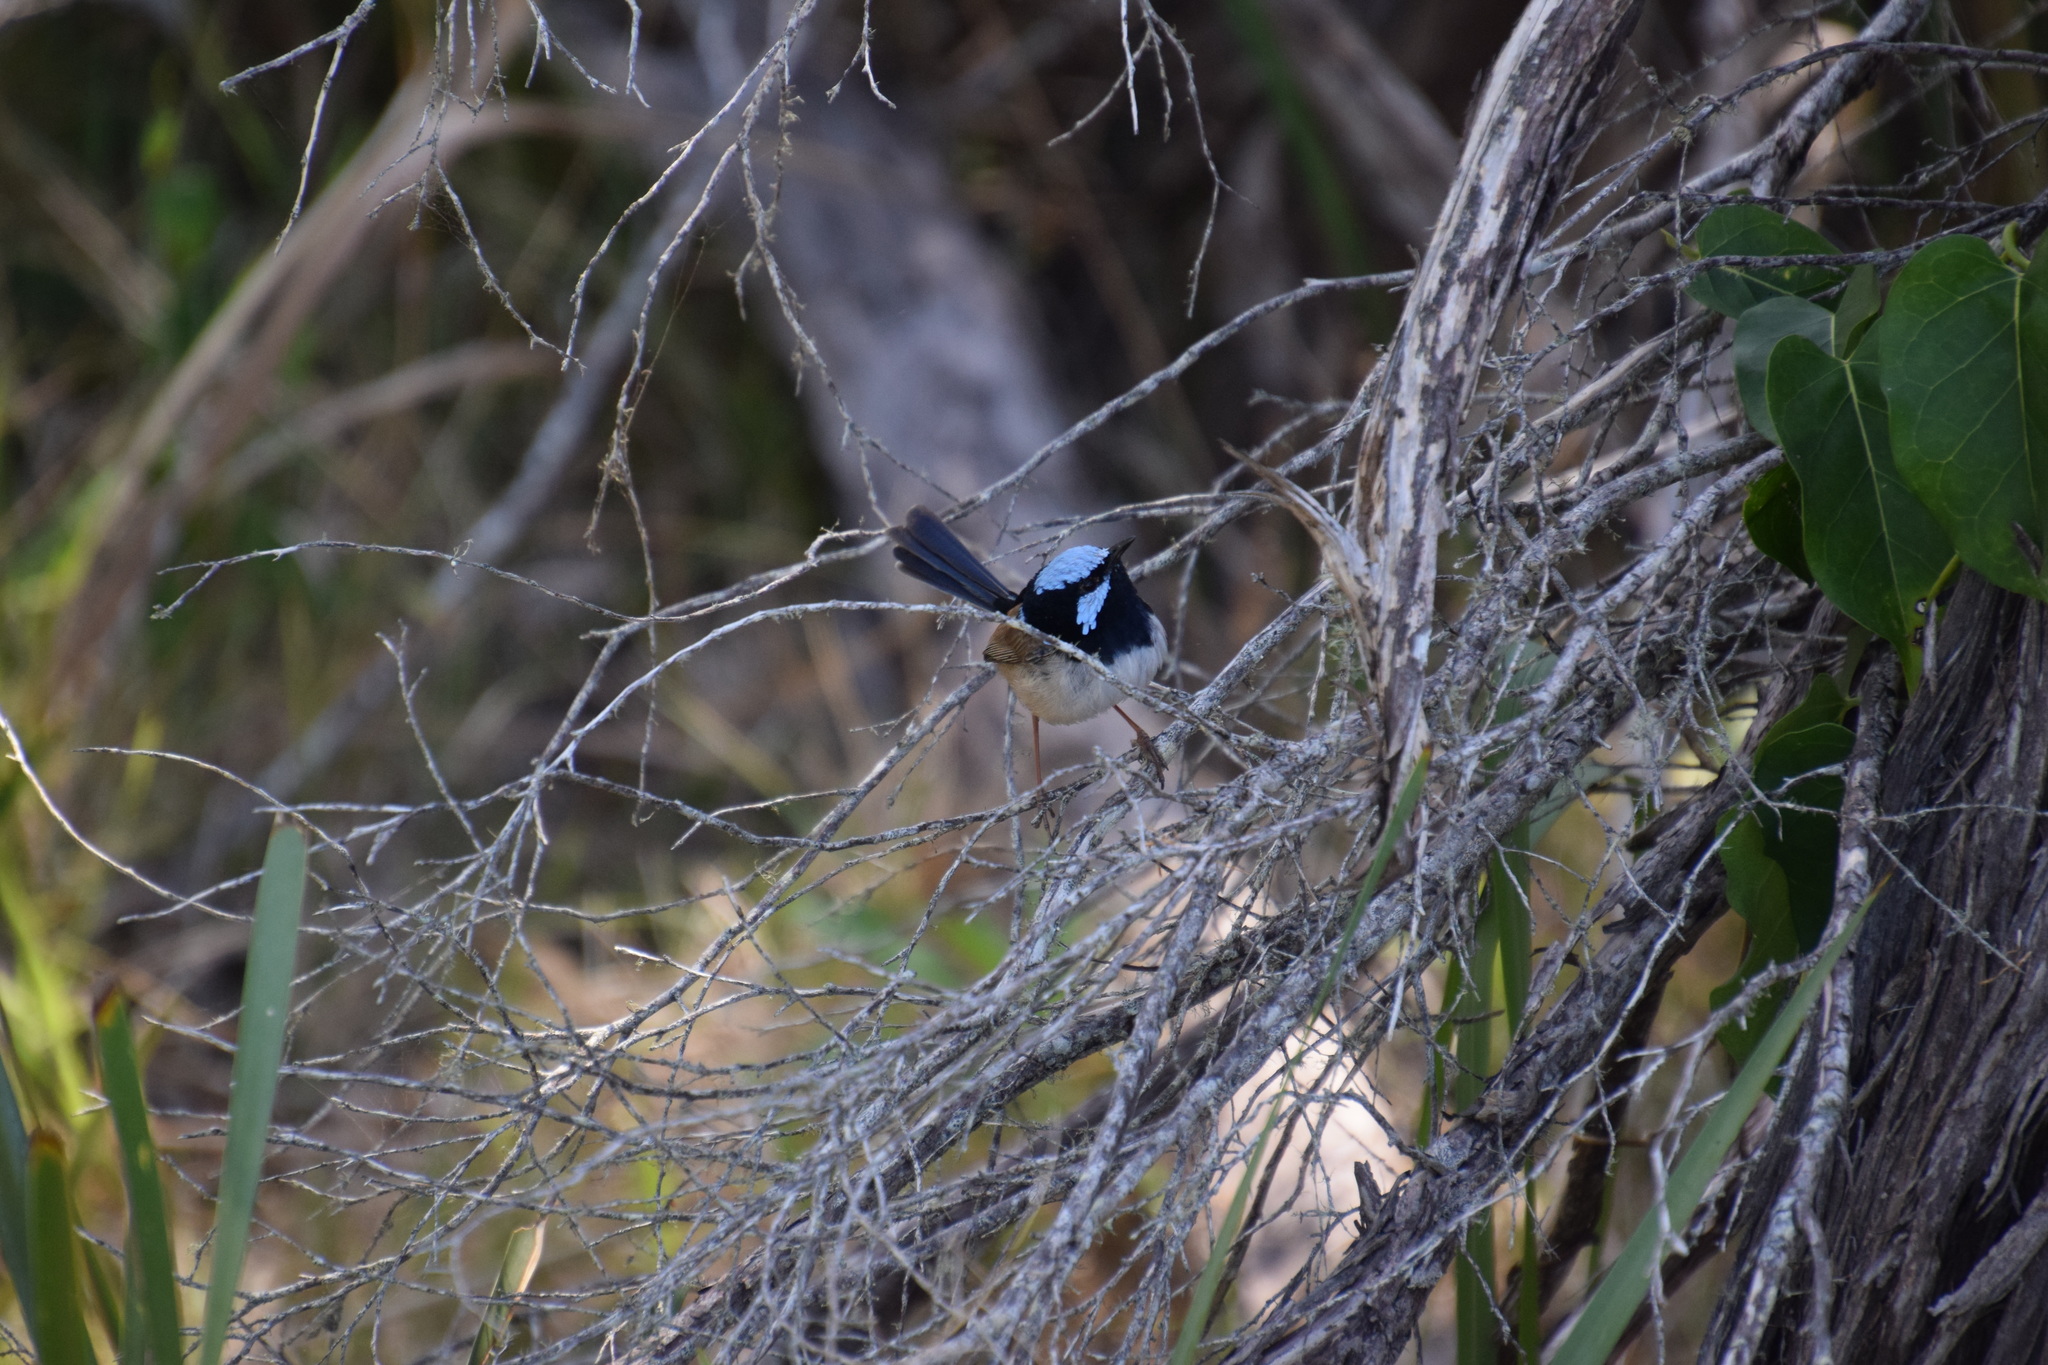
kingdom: Animalia
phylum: Chordata
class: Aves
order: Passeriformes
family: Maluridae
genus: Malurus
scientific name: Malurus cyaneus
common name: Superb fairywren
